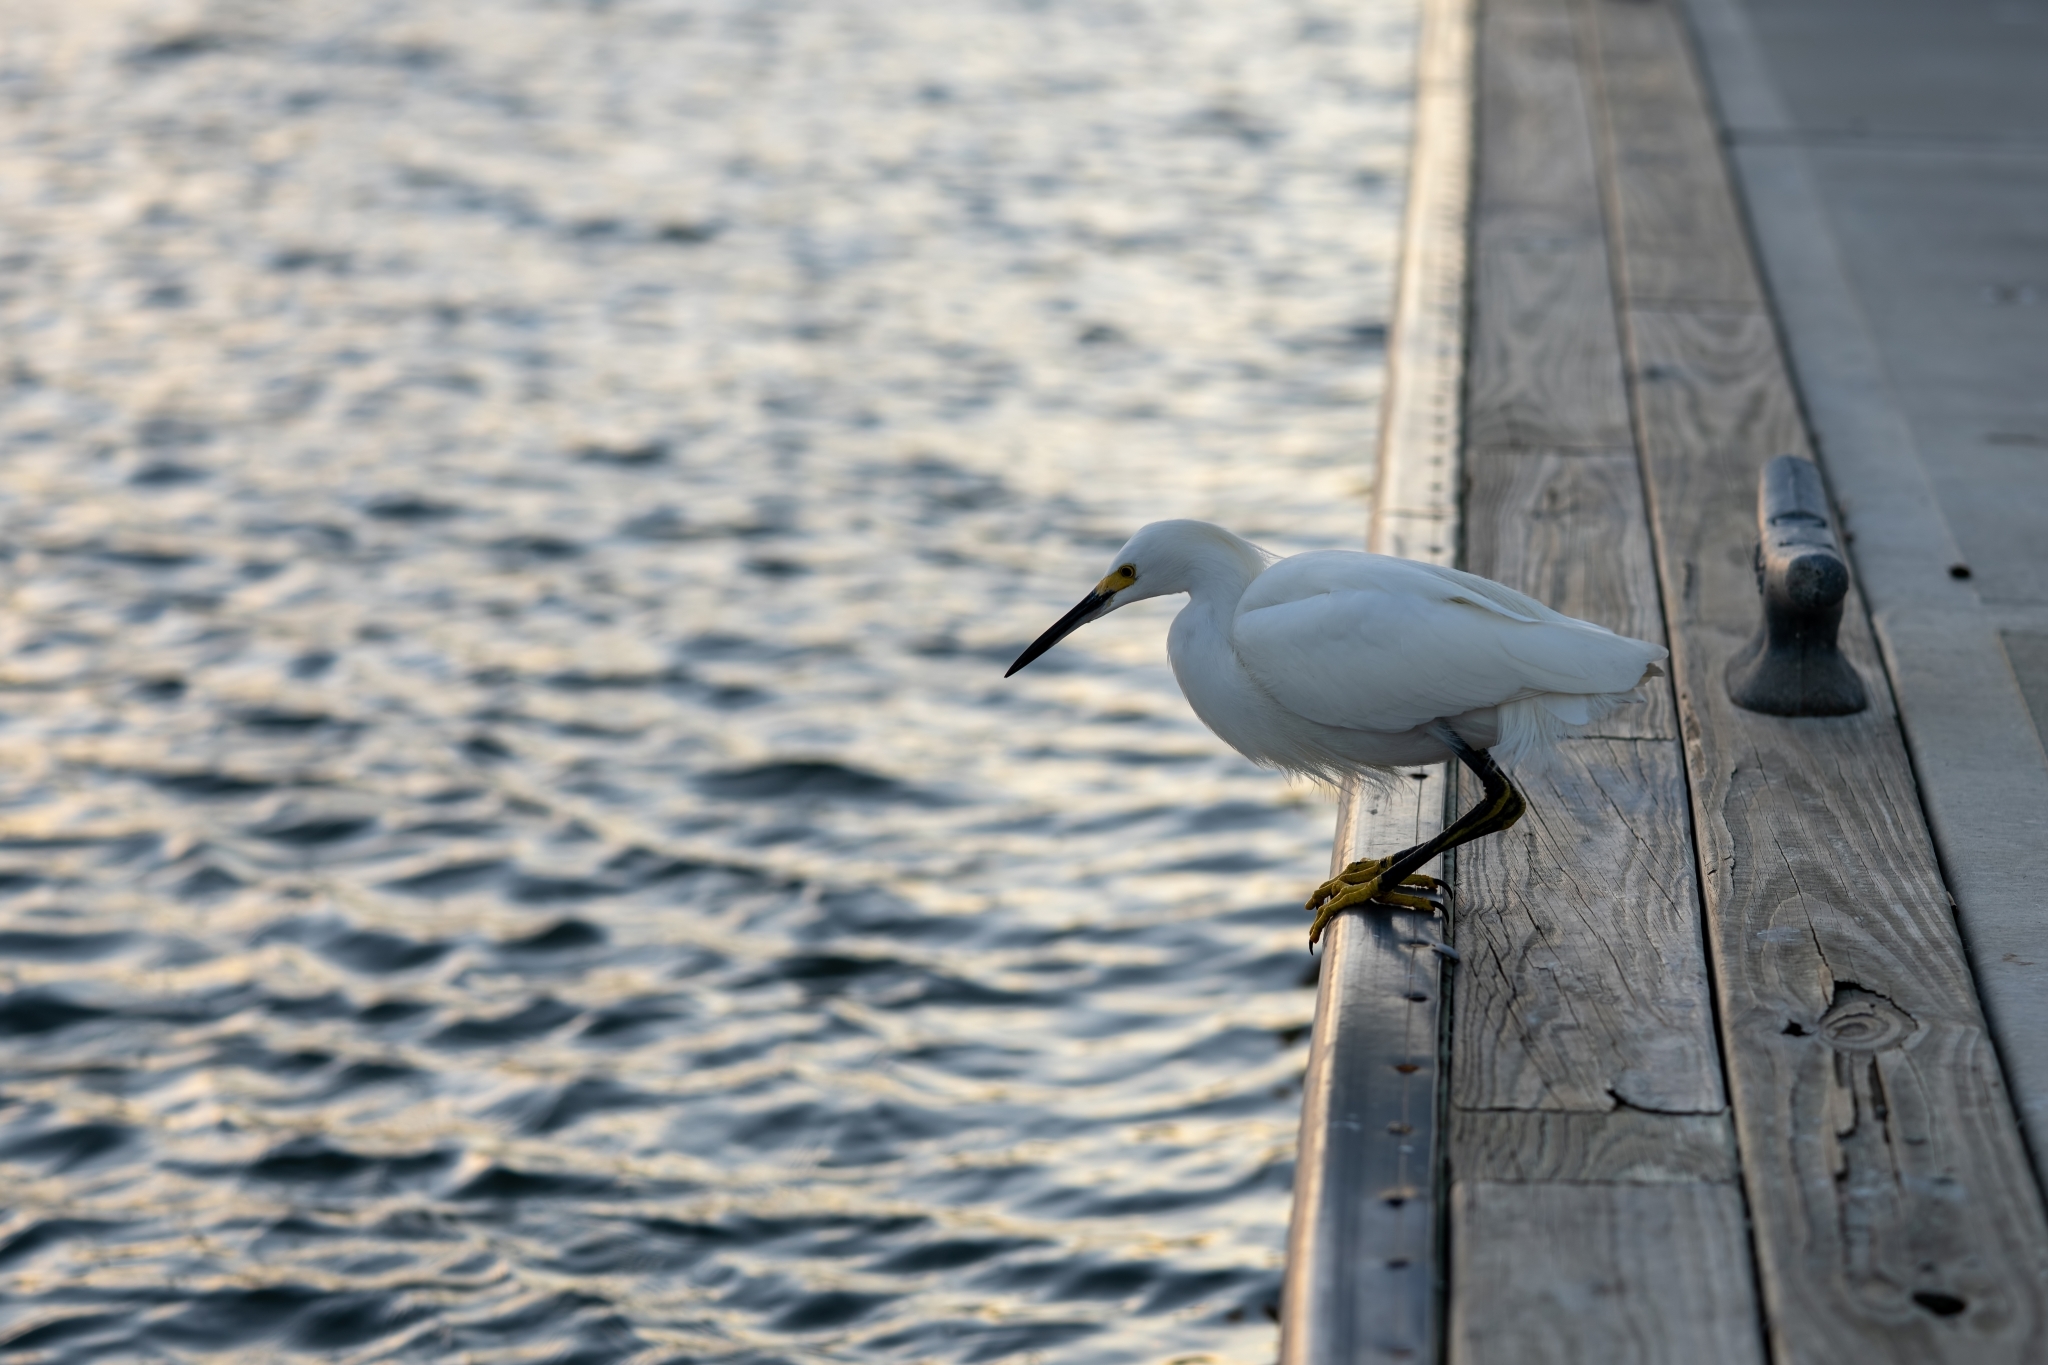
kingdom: Animalia
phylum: Chordata
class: Aves
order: Pelecaniformes
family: Ardeidae
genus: Egretta
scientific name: Egretta thula
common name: Snowy egret
